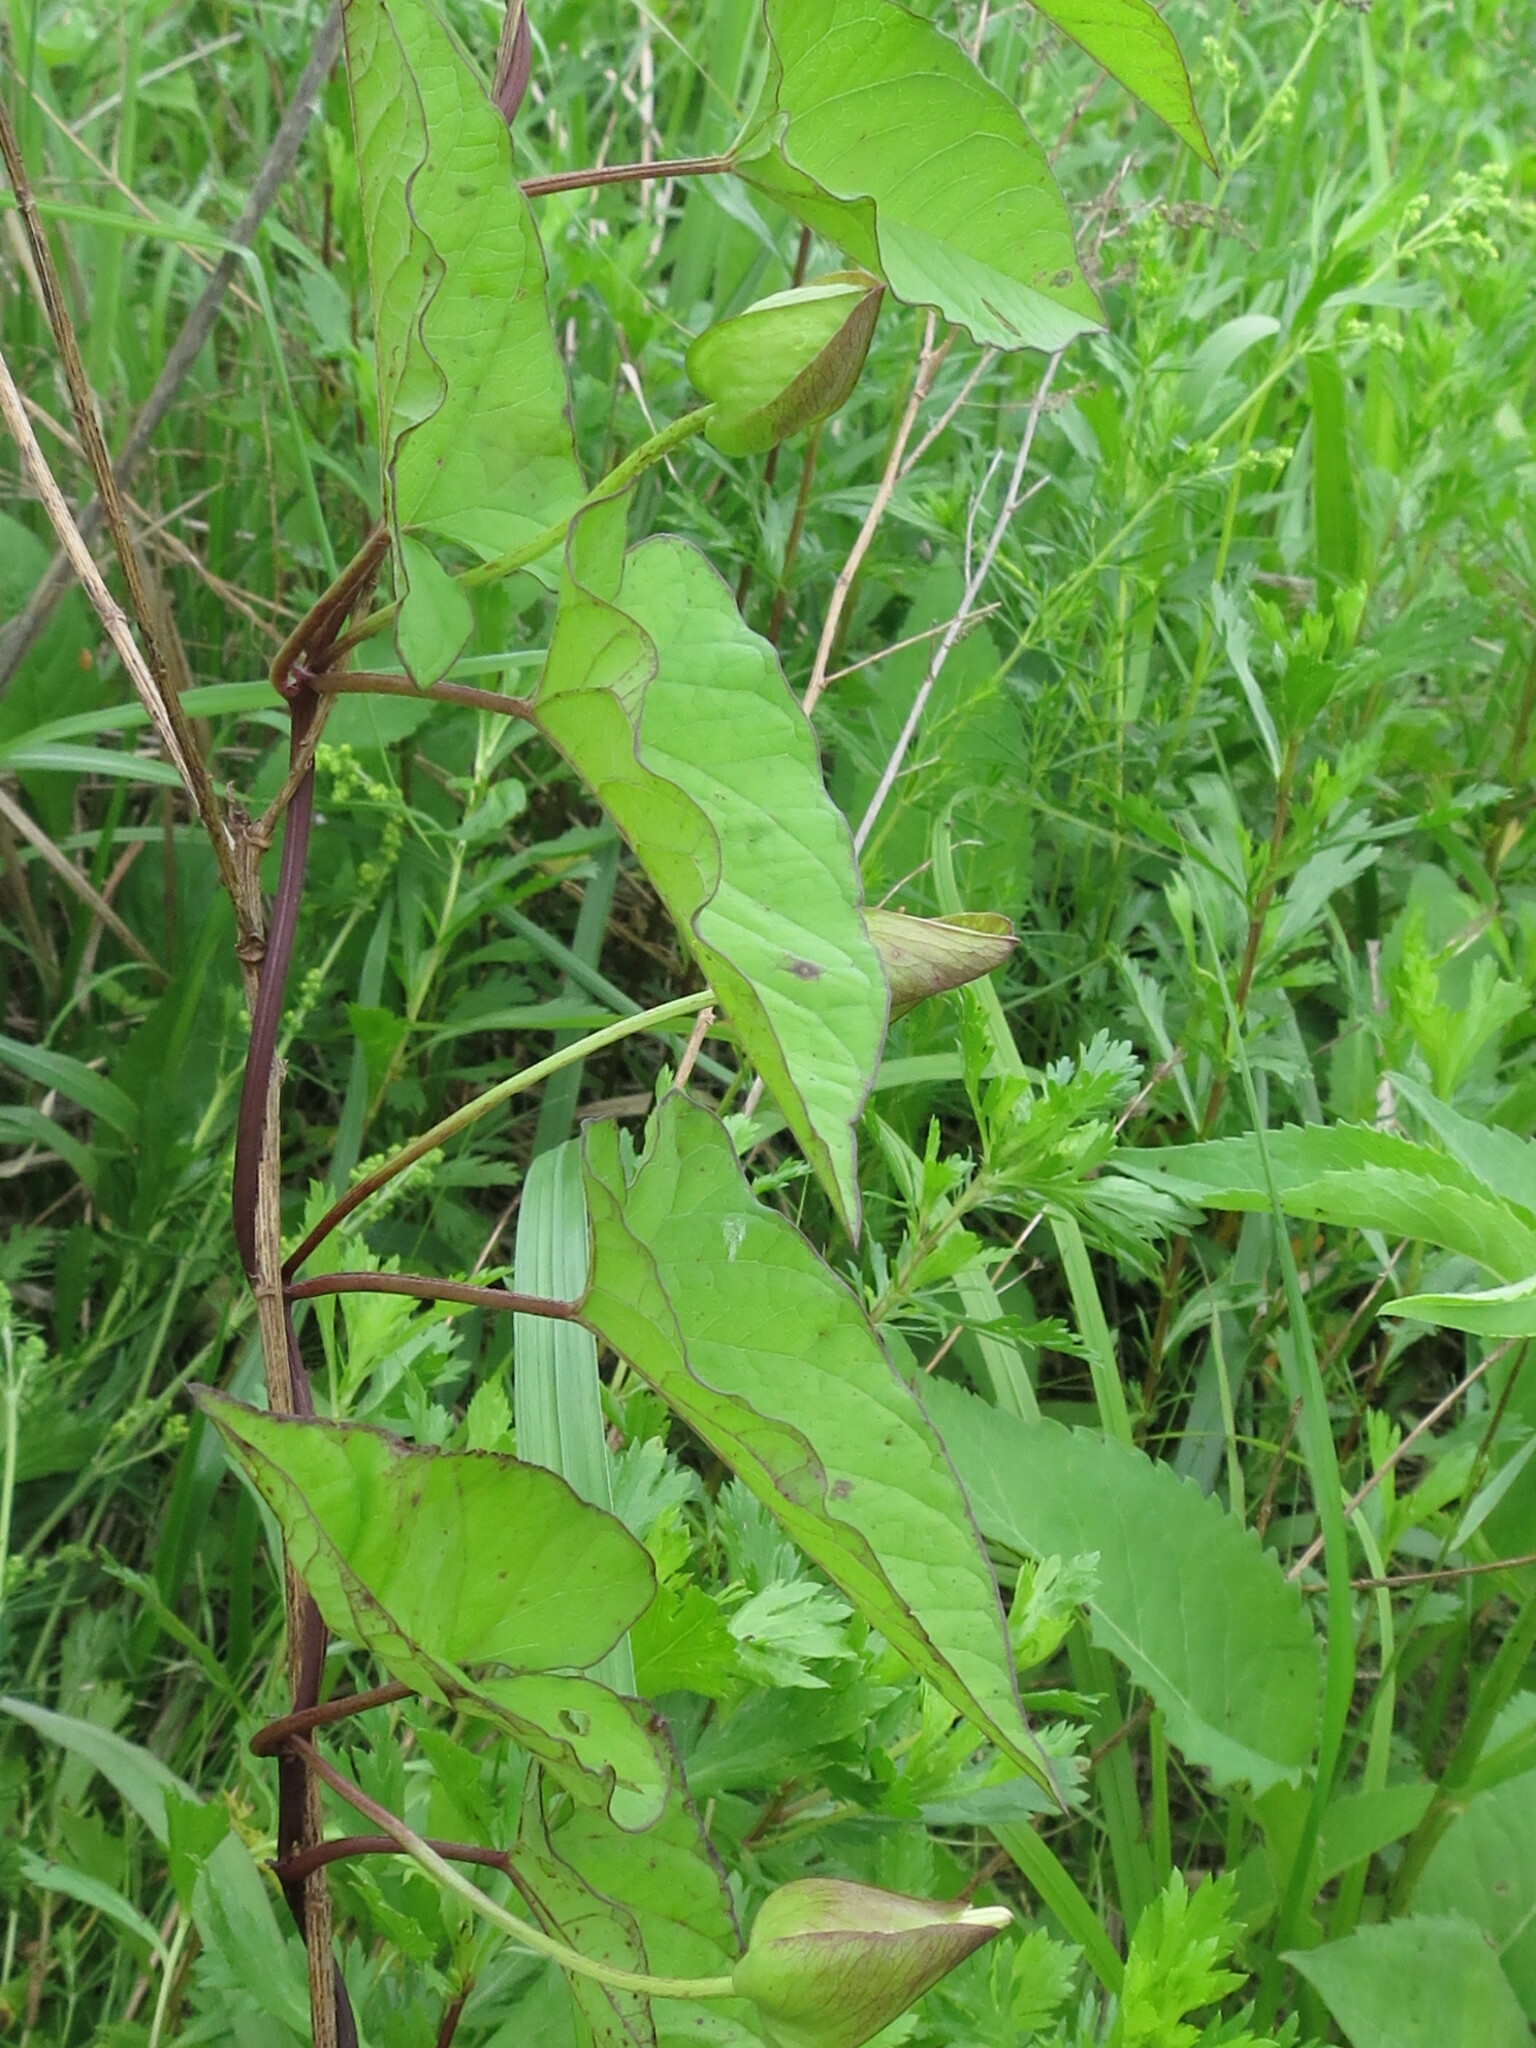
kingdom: Plantae
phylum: Tracheophyta
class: Magnoliopsida
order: Solanales
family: Convolvulaceae
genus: Calystegia
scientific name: Calystegia sepium
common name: Hedge bindweed
